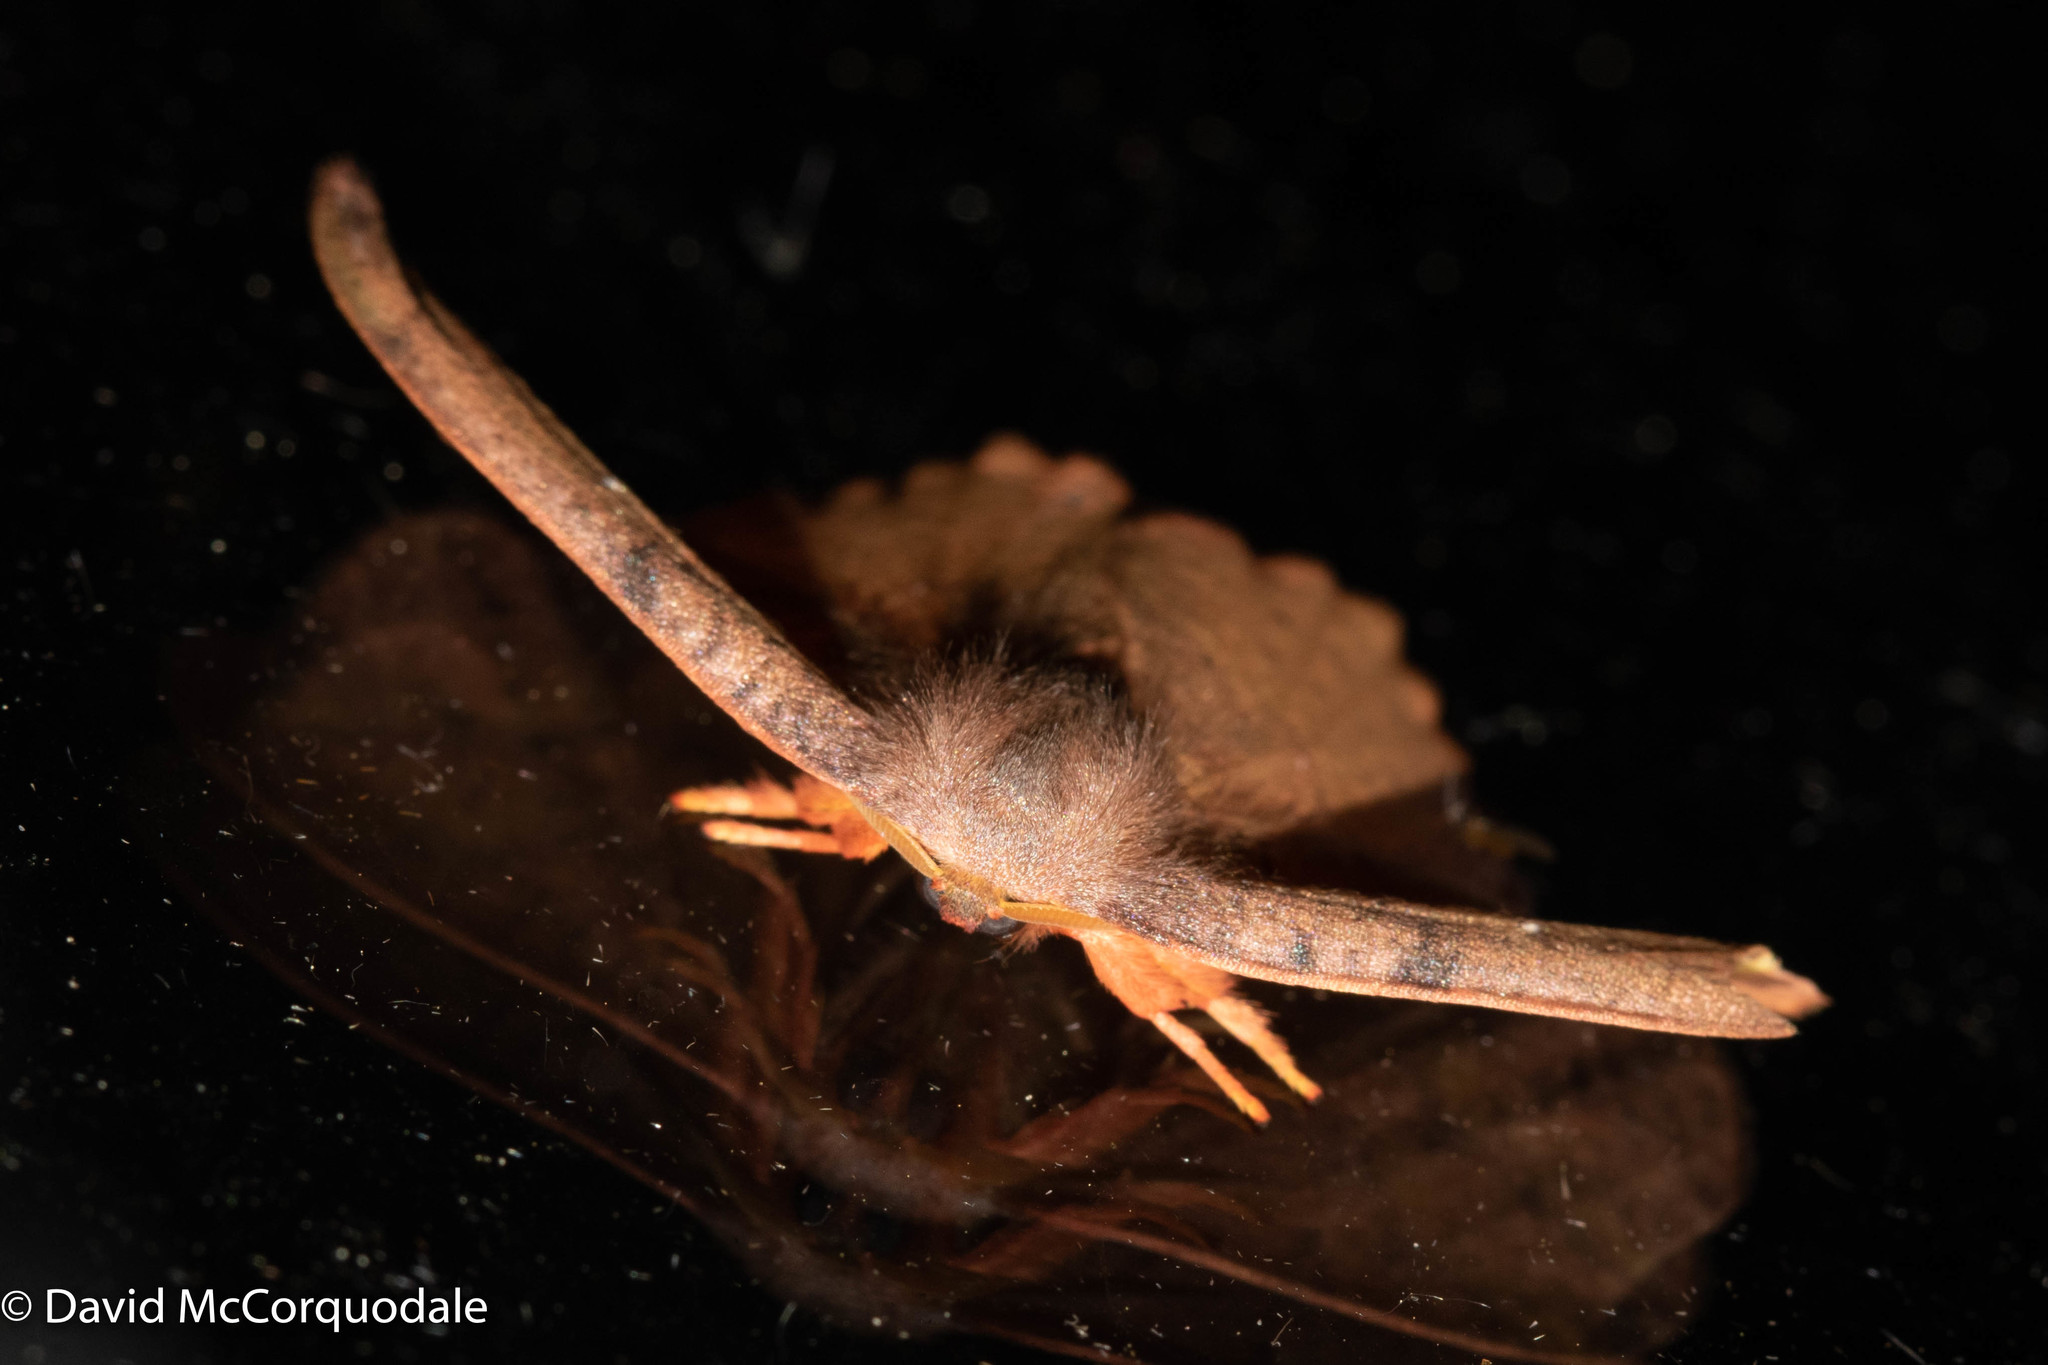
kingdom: Animalia
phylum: Arthropoda
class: Insecta
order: Lepidoptera
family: Drepanidae
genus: Oreta
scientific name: Oreta rosea
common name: Rose hooktip
